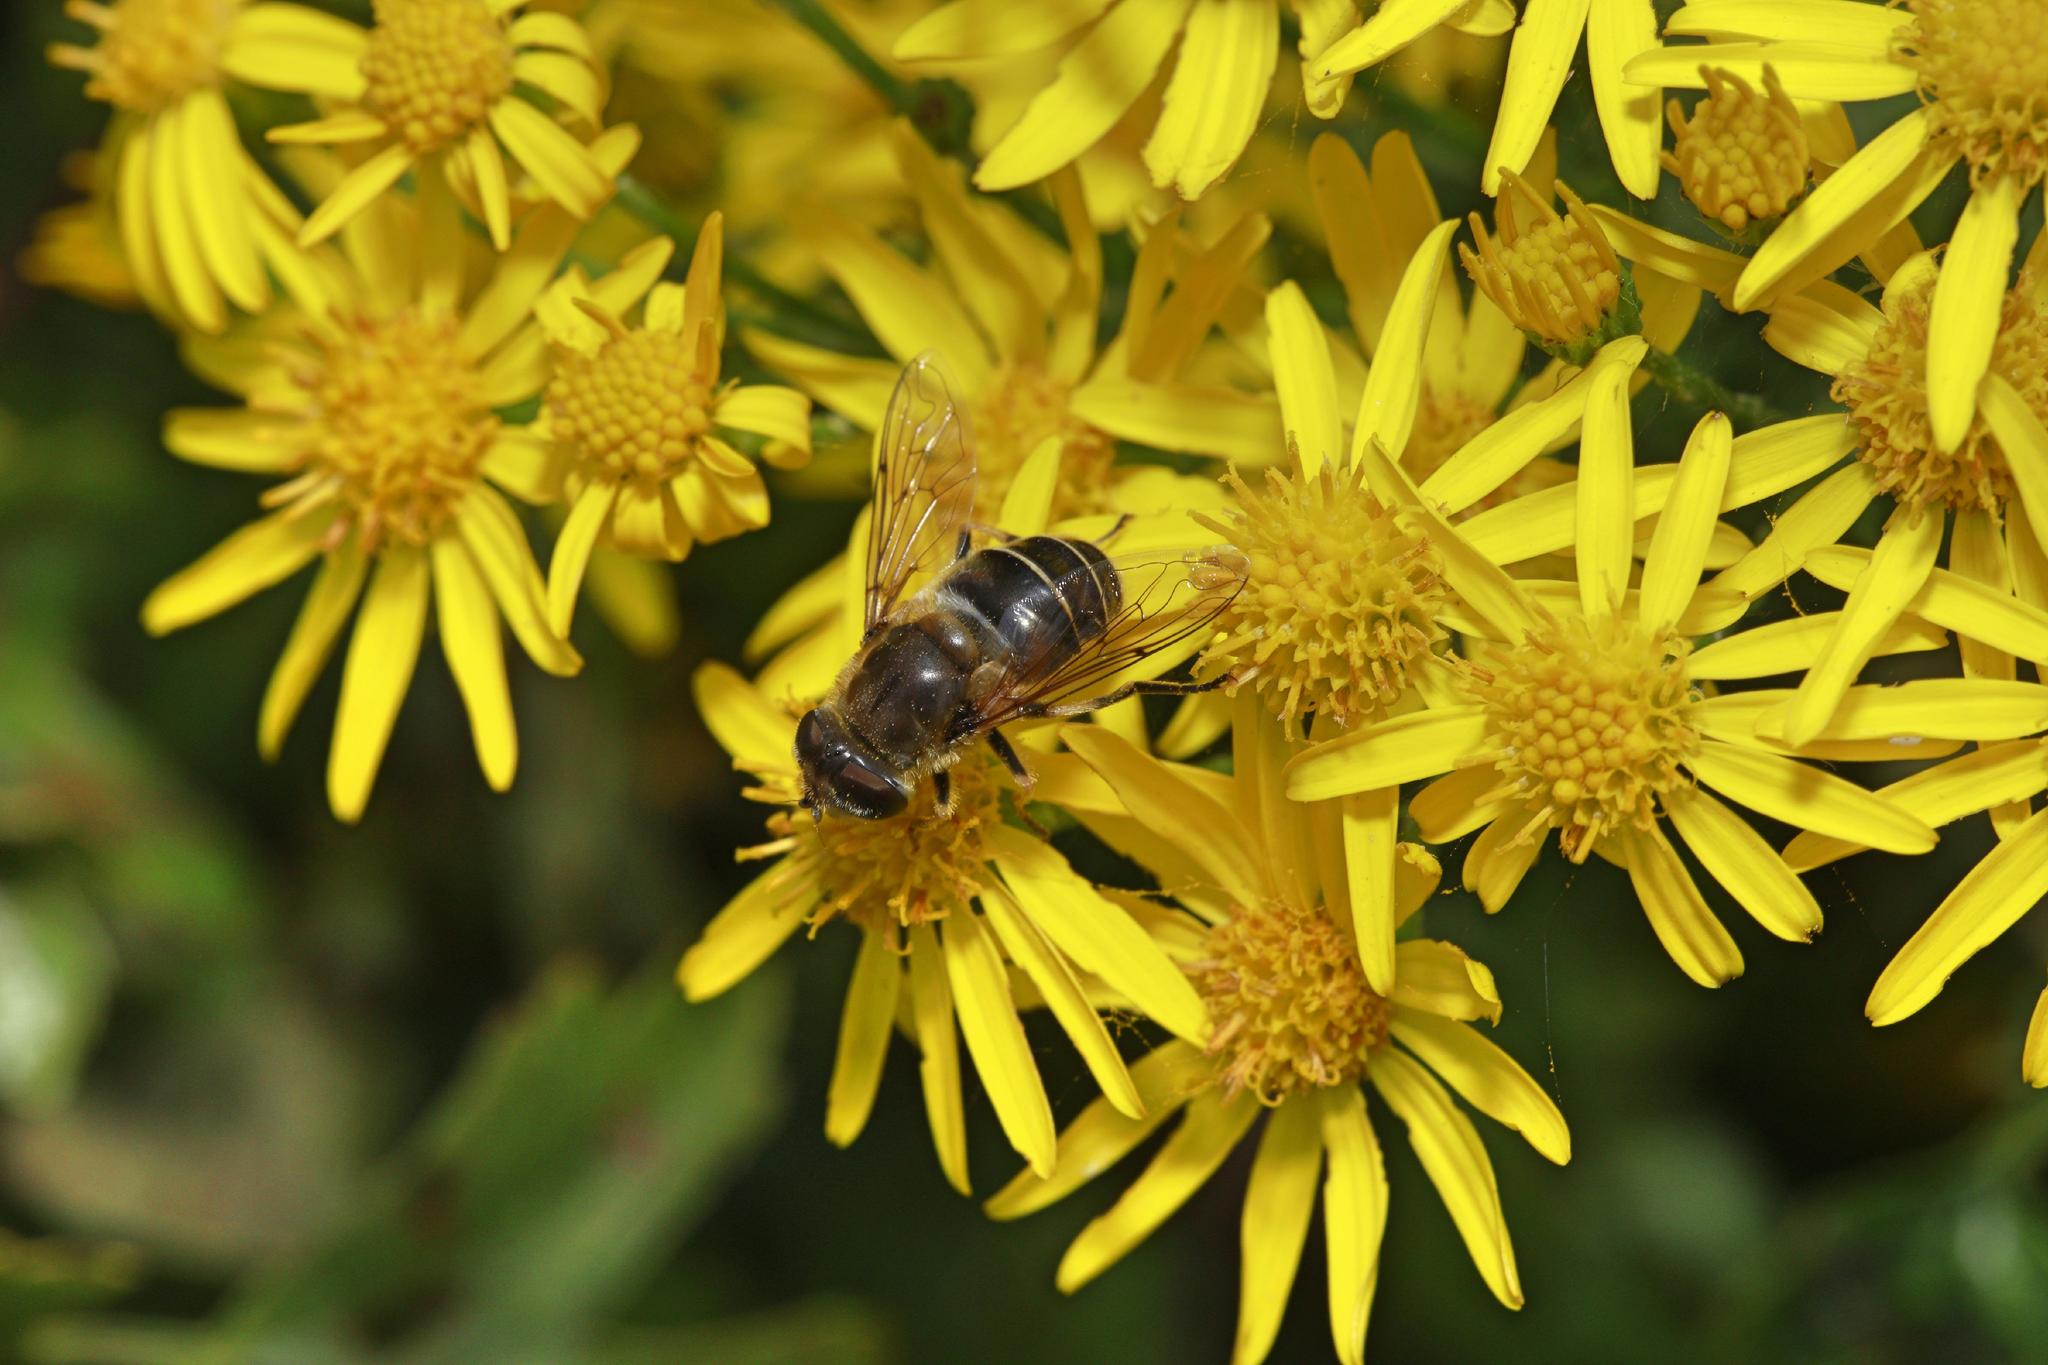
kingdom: Animalia
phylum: Arthropoda
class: Insecta
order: Diptera
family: Syrphidae
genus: Eristalis
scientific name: Eristalis nemorum
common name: Orange-spined drone fly
